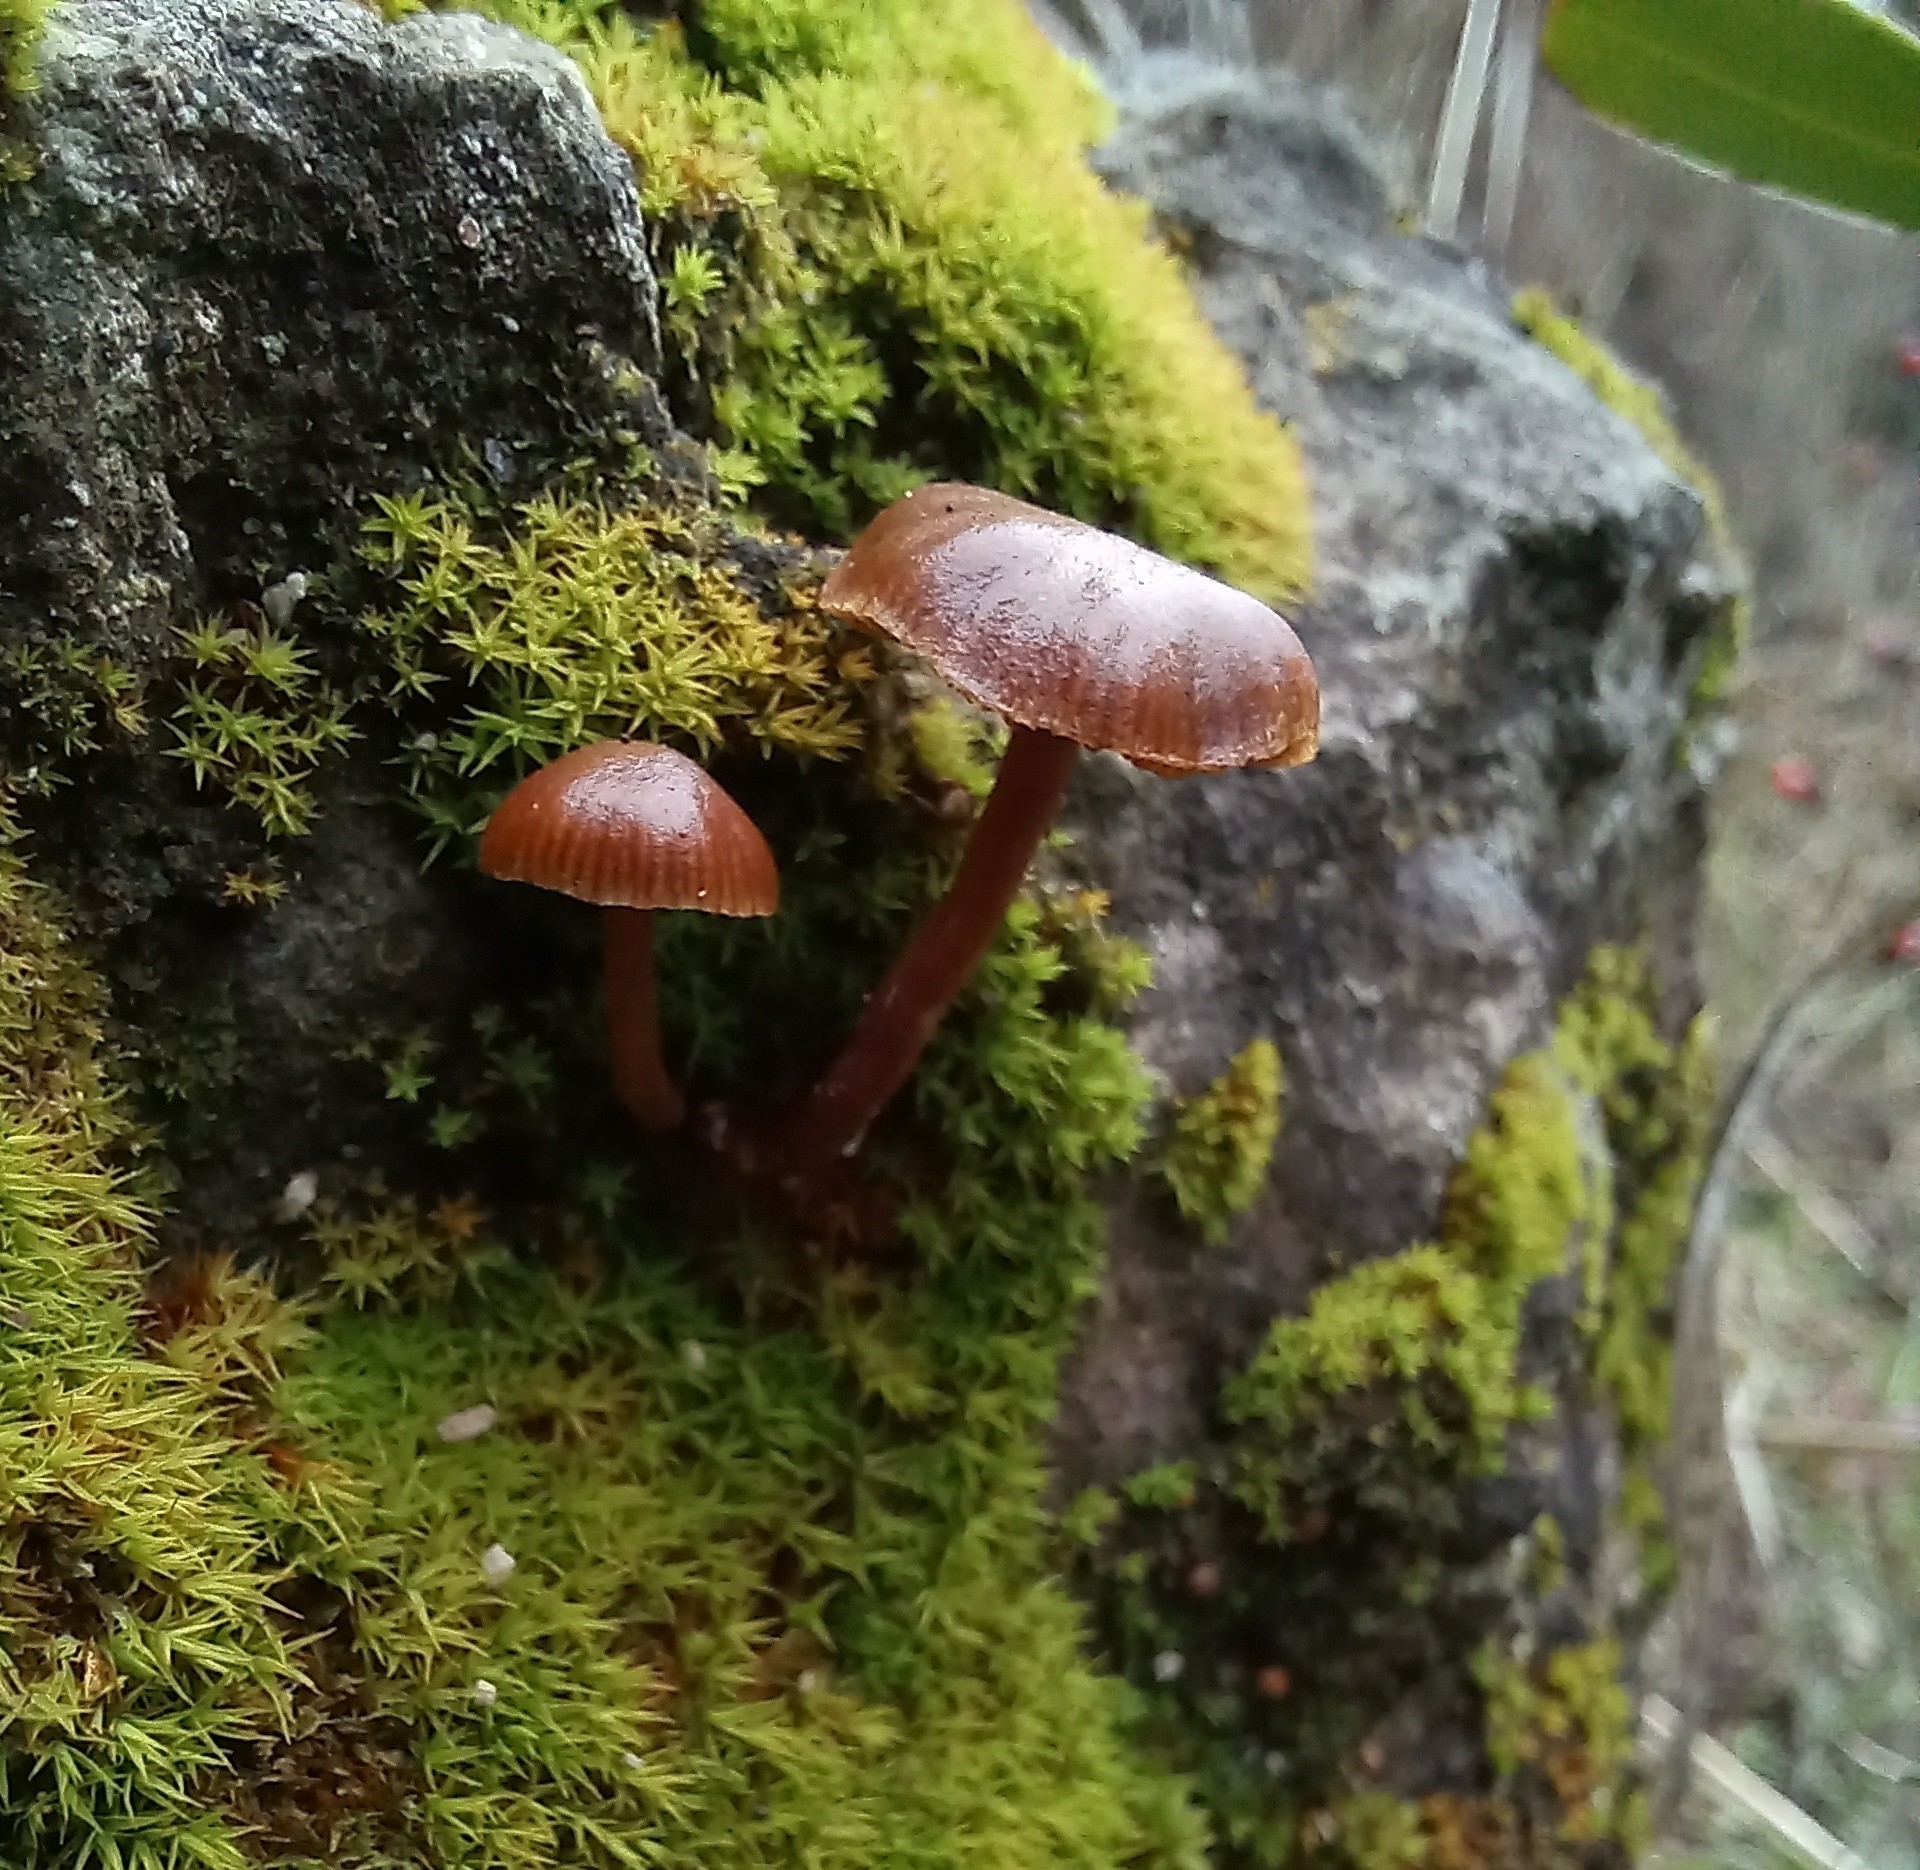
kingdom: Fungi
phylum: Basidiomycota
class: Agaricomycetes
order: Agaricales
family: Strophariaceae
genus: Deconica
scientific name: Deconica montana
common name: Mountain moss deconica
